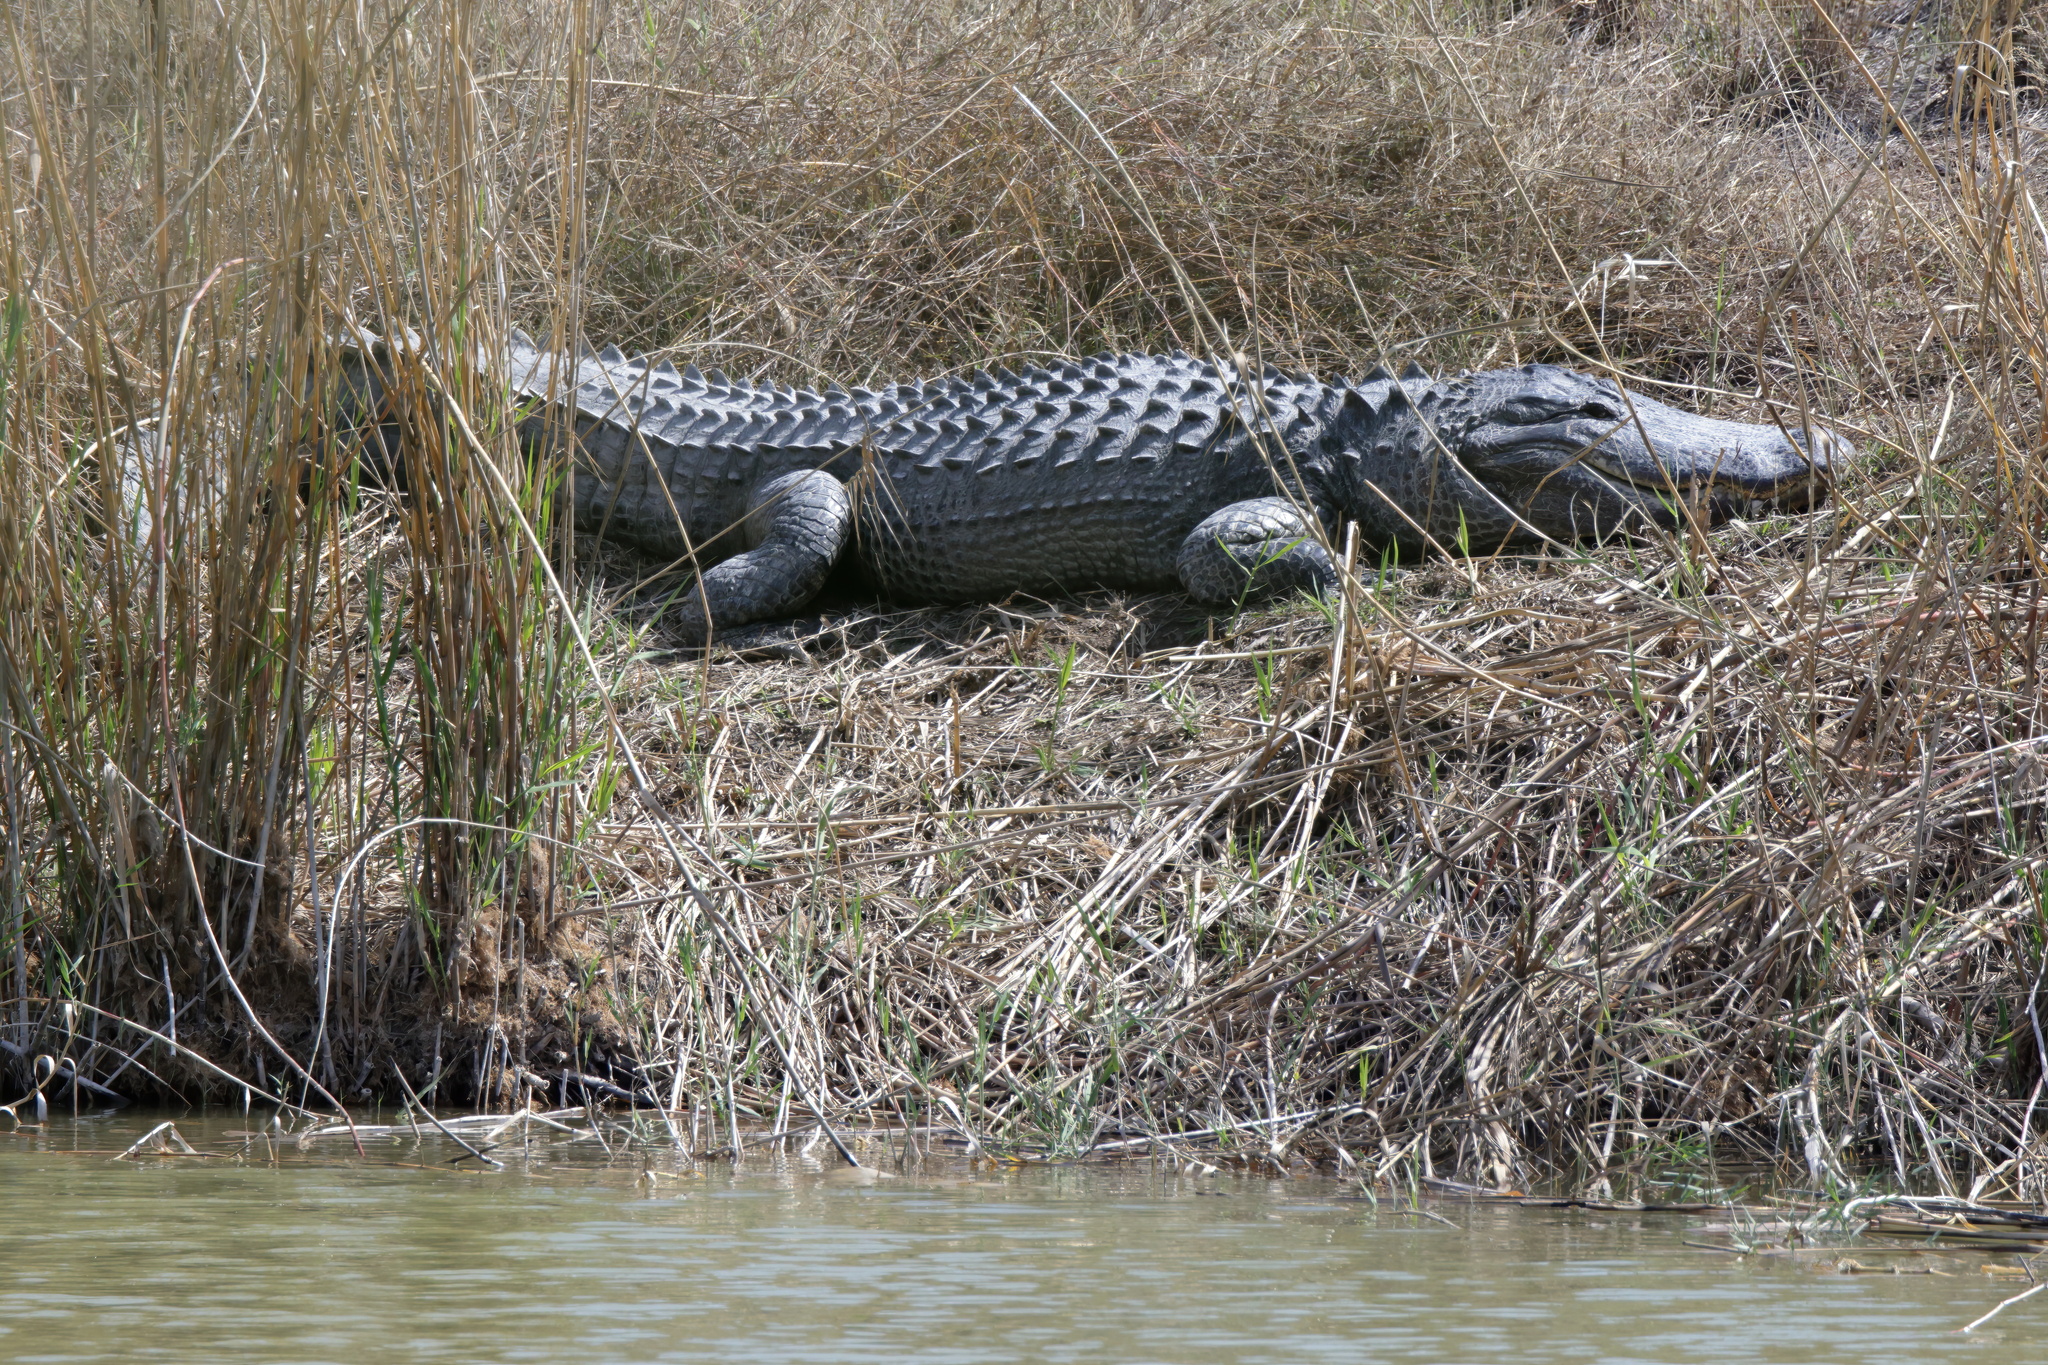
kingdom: Animalia
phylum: Chordata
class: Crocodylia
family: Alligatoridae
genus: Alligator
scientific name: Alligator mississippiensis
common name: American alligator
